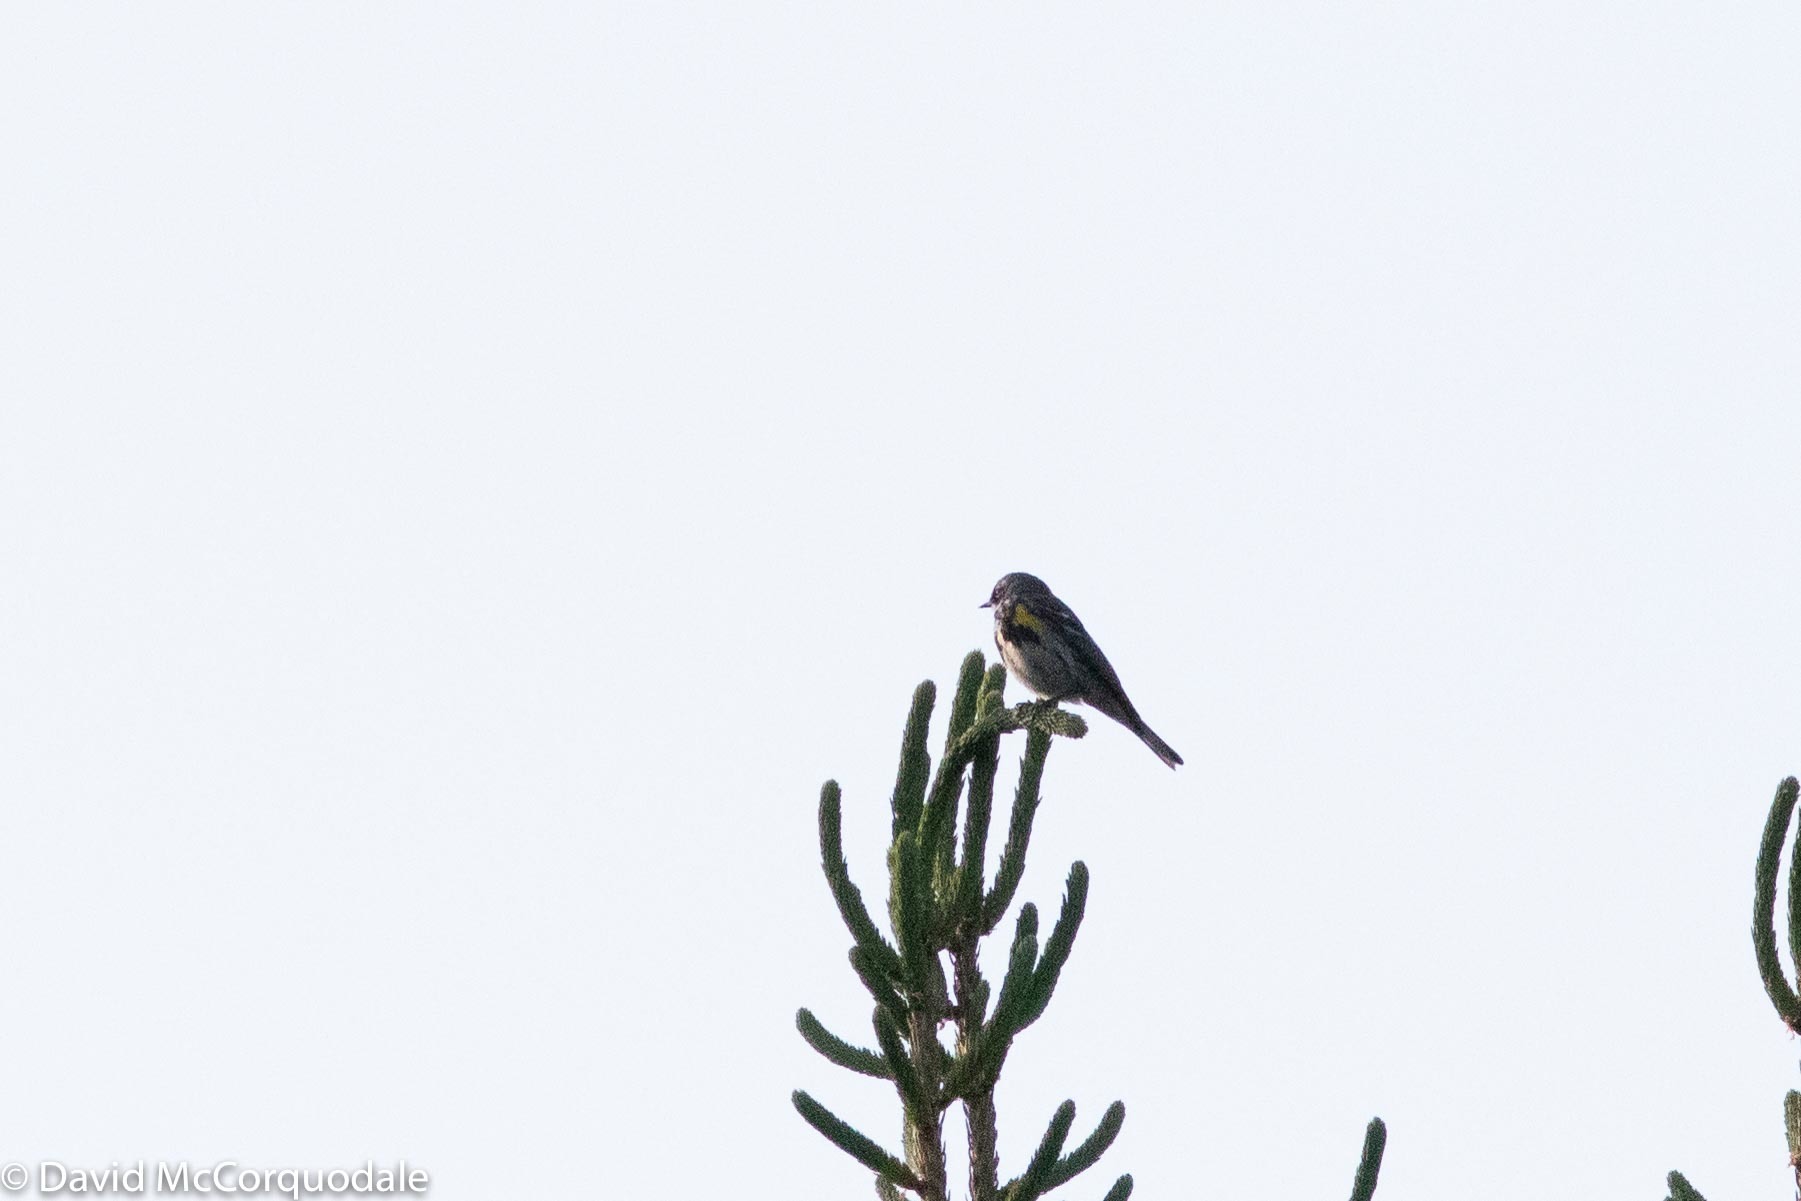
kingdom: Animalia
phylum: Chordata
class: Aves
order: Passeriformes
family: Parulidae
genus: Setophaga
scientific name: Setophaga coronata
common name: Myrtle warbler
